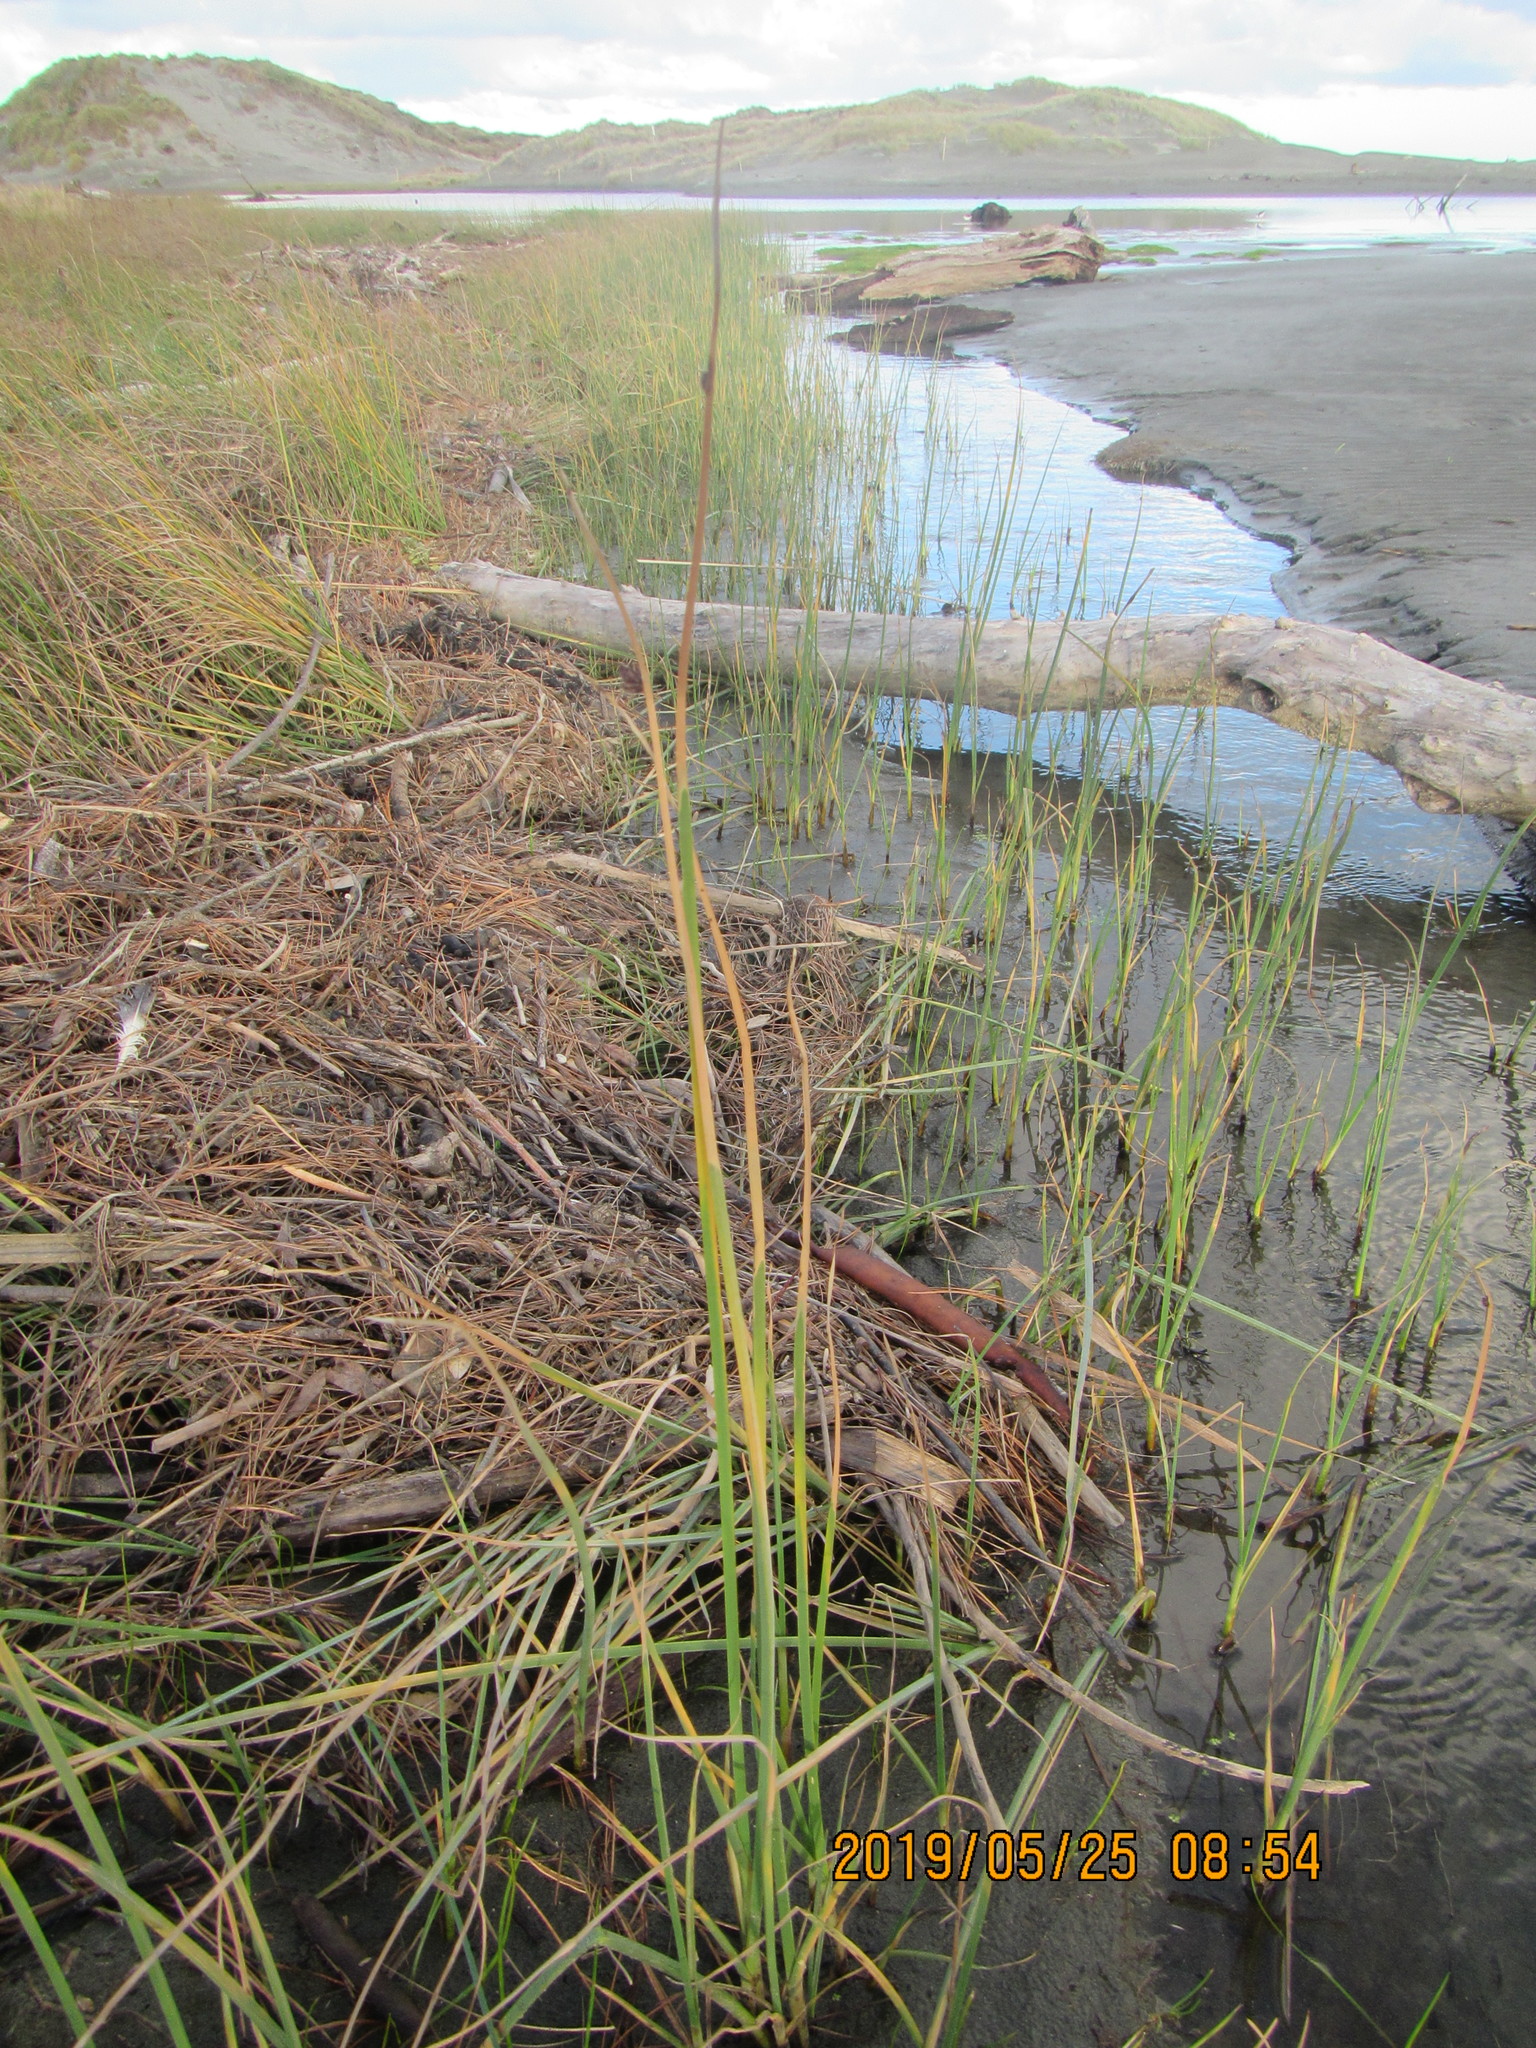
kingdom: Plantae
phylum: Tracheophyta
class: Liliopsida
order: Poales
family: Cyperaceae
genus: Schoenoplectus
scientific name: Schoenoplectus pungens
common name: Sharp club-rush
